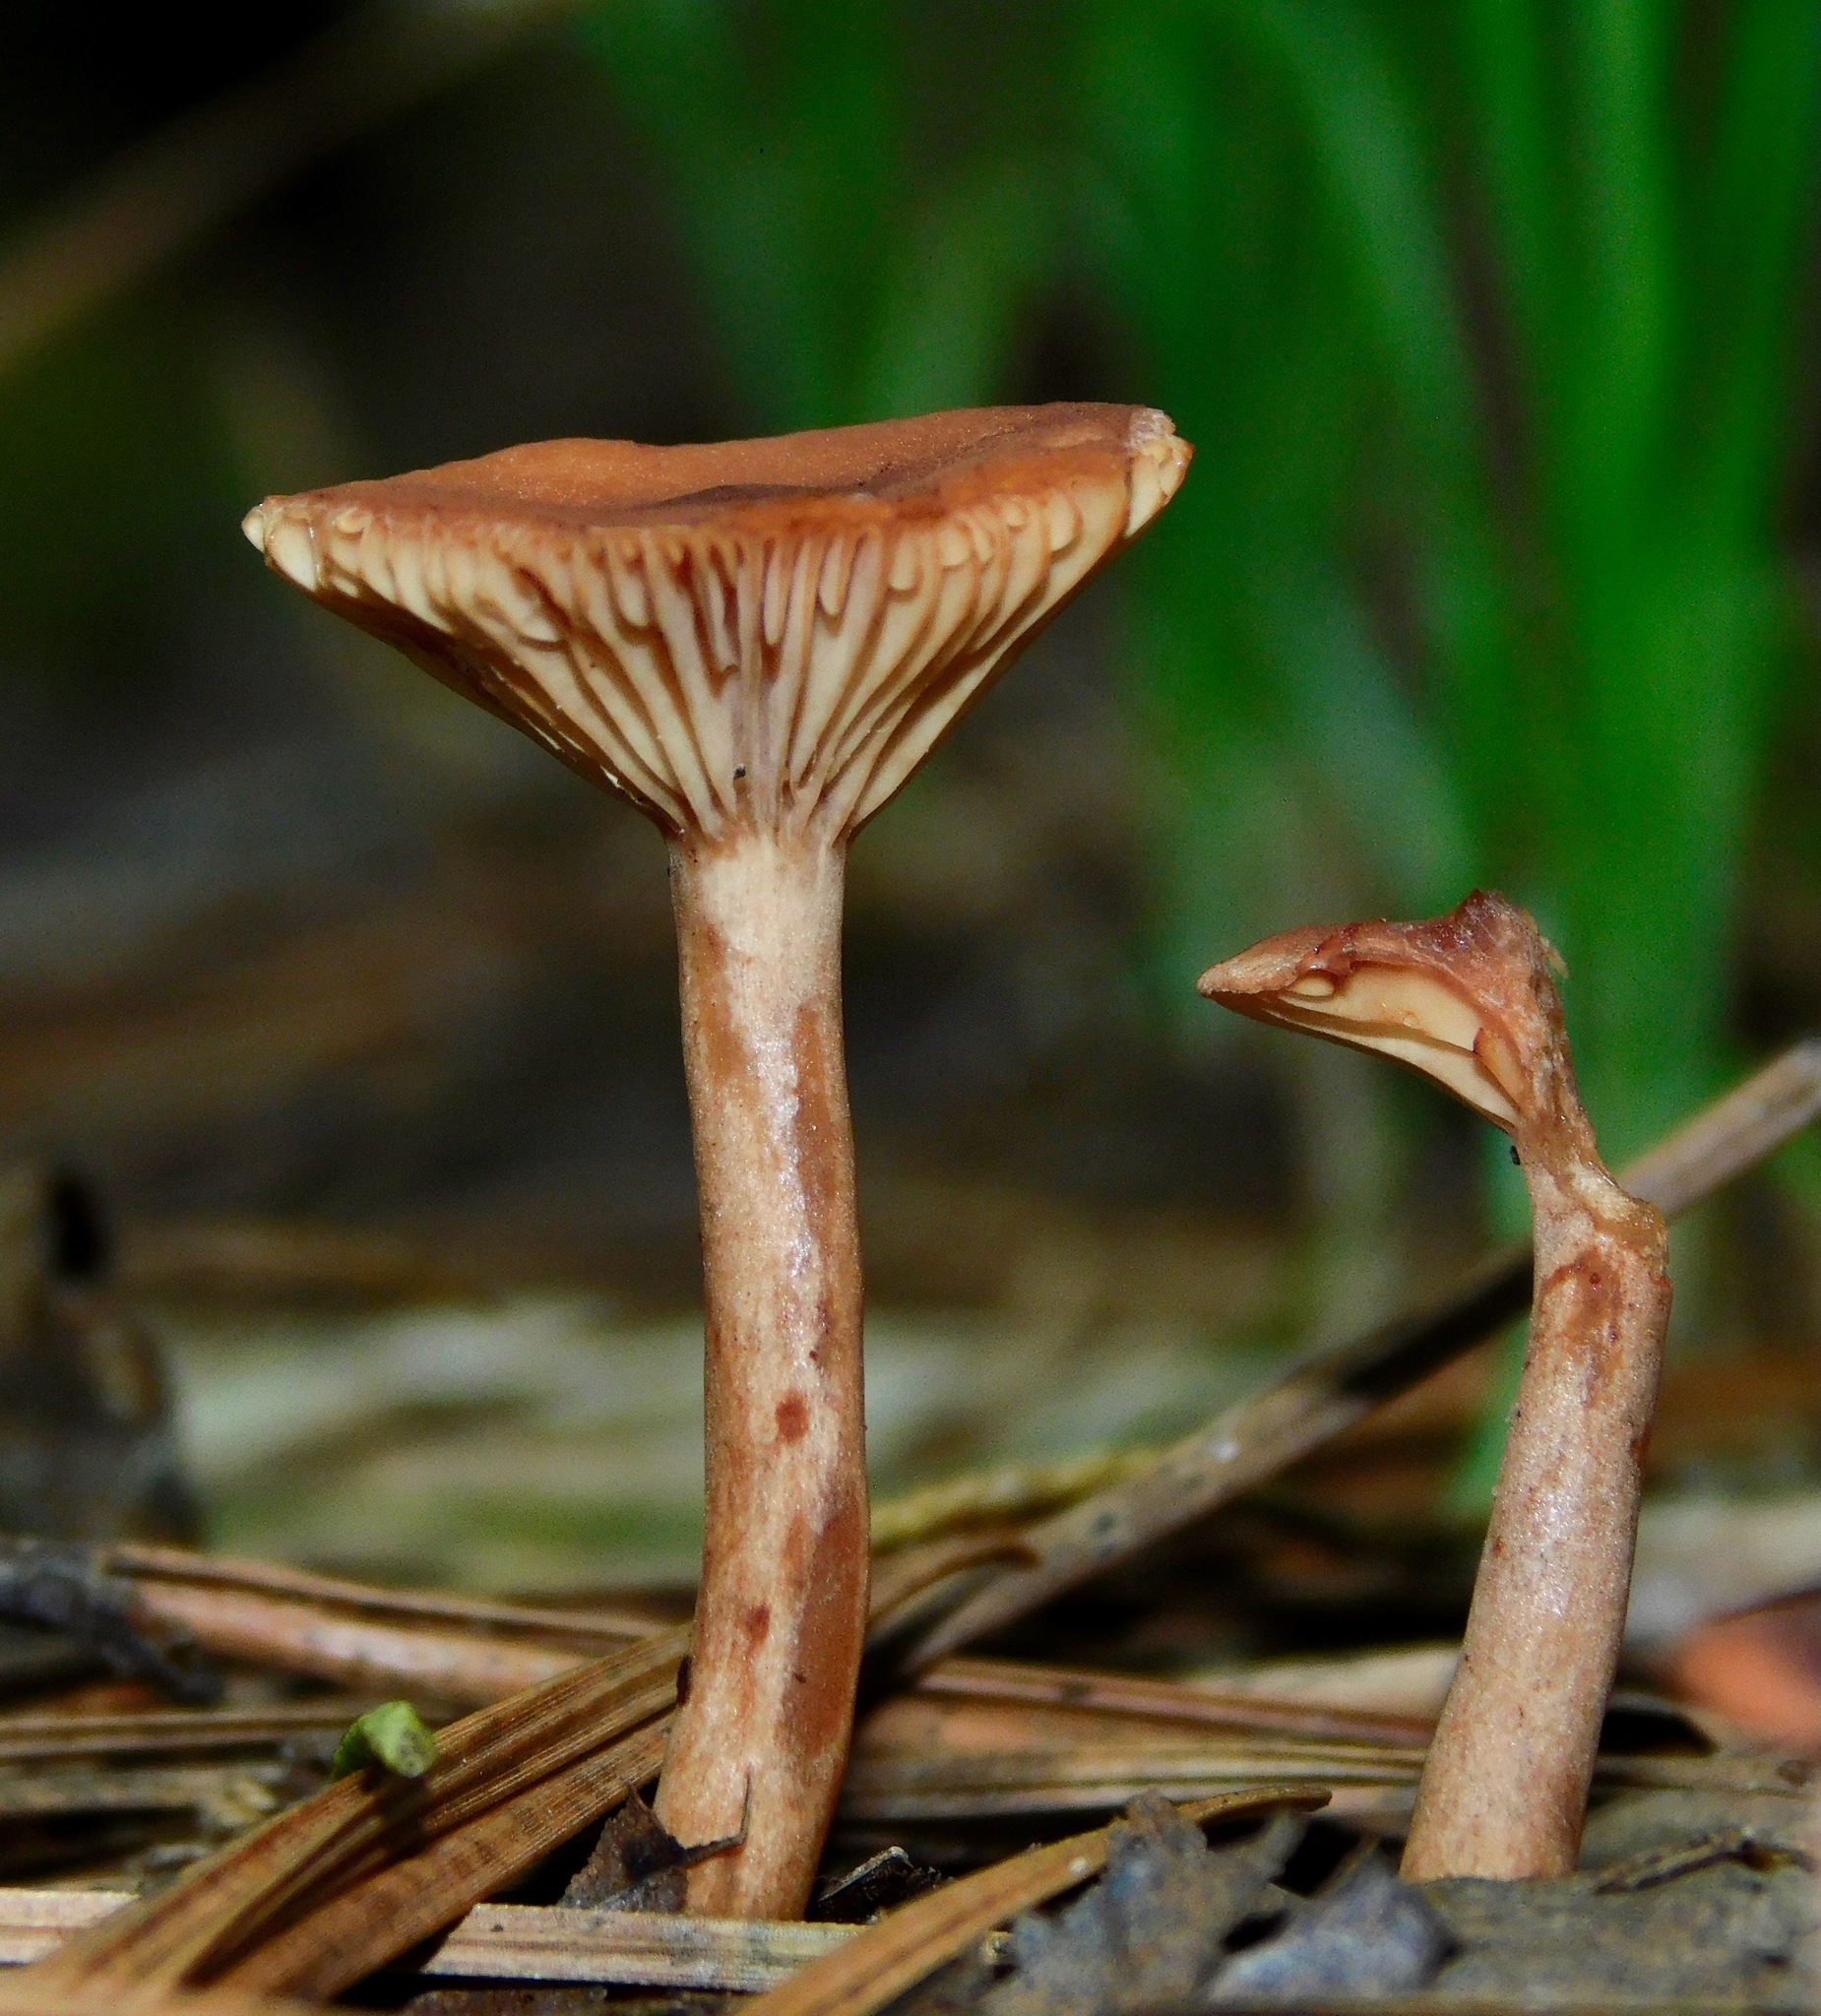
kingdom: Fungi
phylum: Basidiomycota
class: Agaricomycetes
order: Russulales
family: Russulaceae
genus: Lactarius
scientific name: Lactarius camphoratus
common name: Curry milkcap
